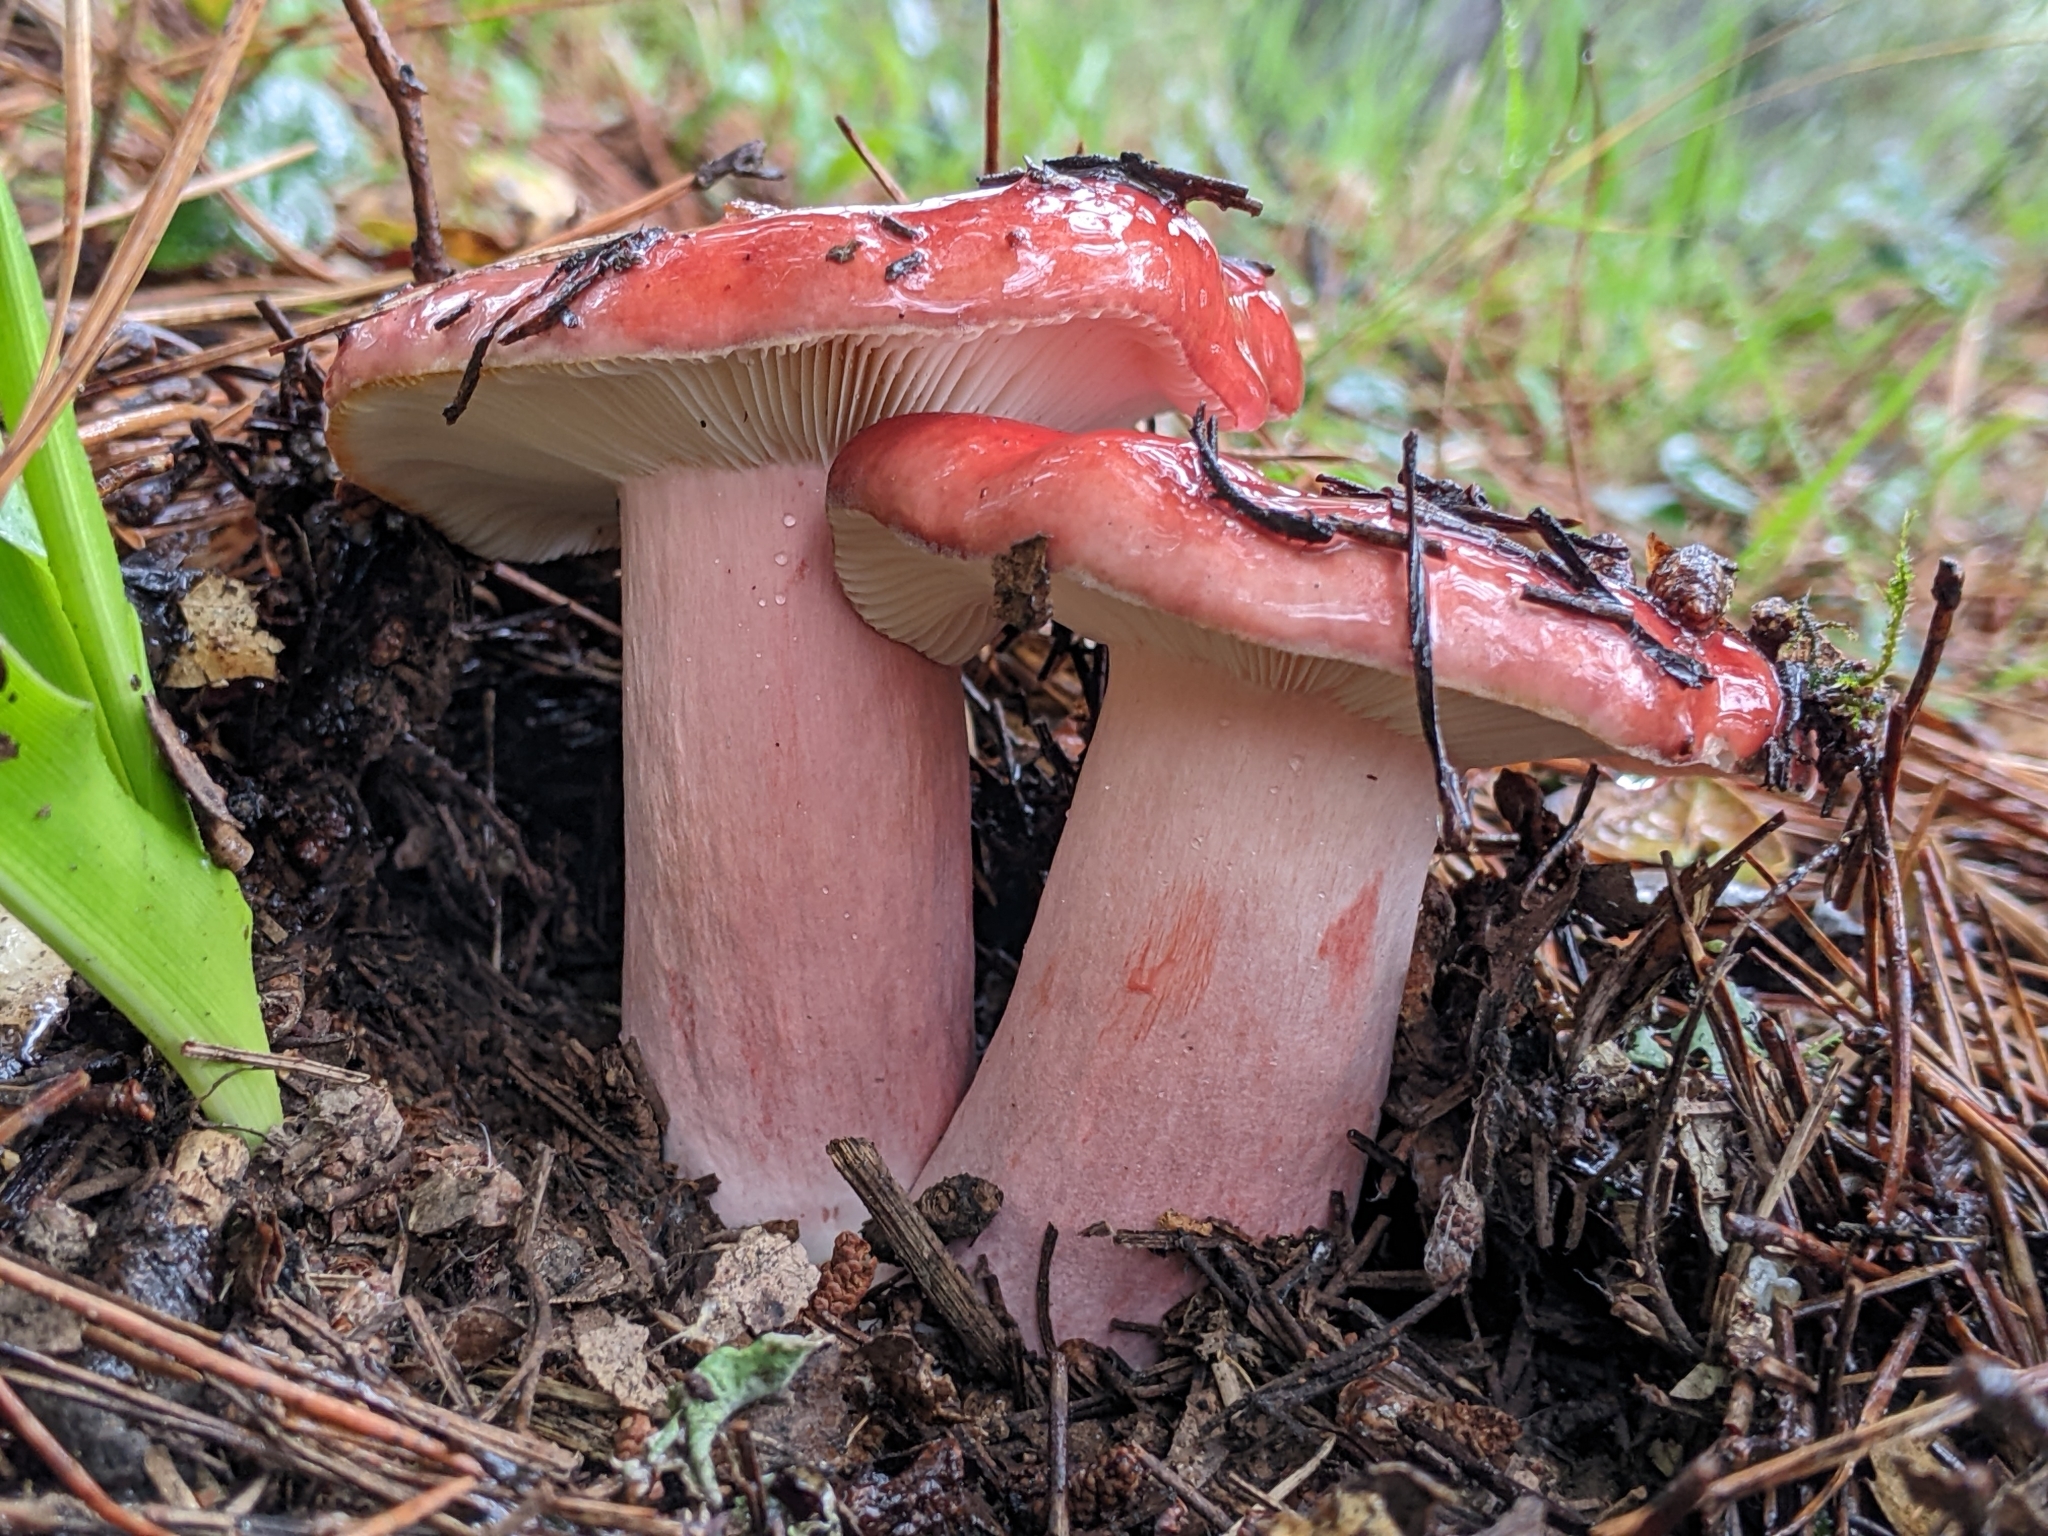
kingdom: Fungi
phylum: Basidiomycota
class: Agaricomycetes
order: Russulales
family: Russulaceae
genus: Russula
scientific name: Russula rhodocephala
